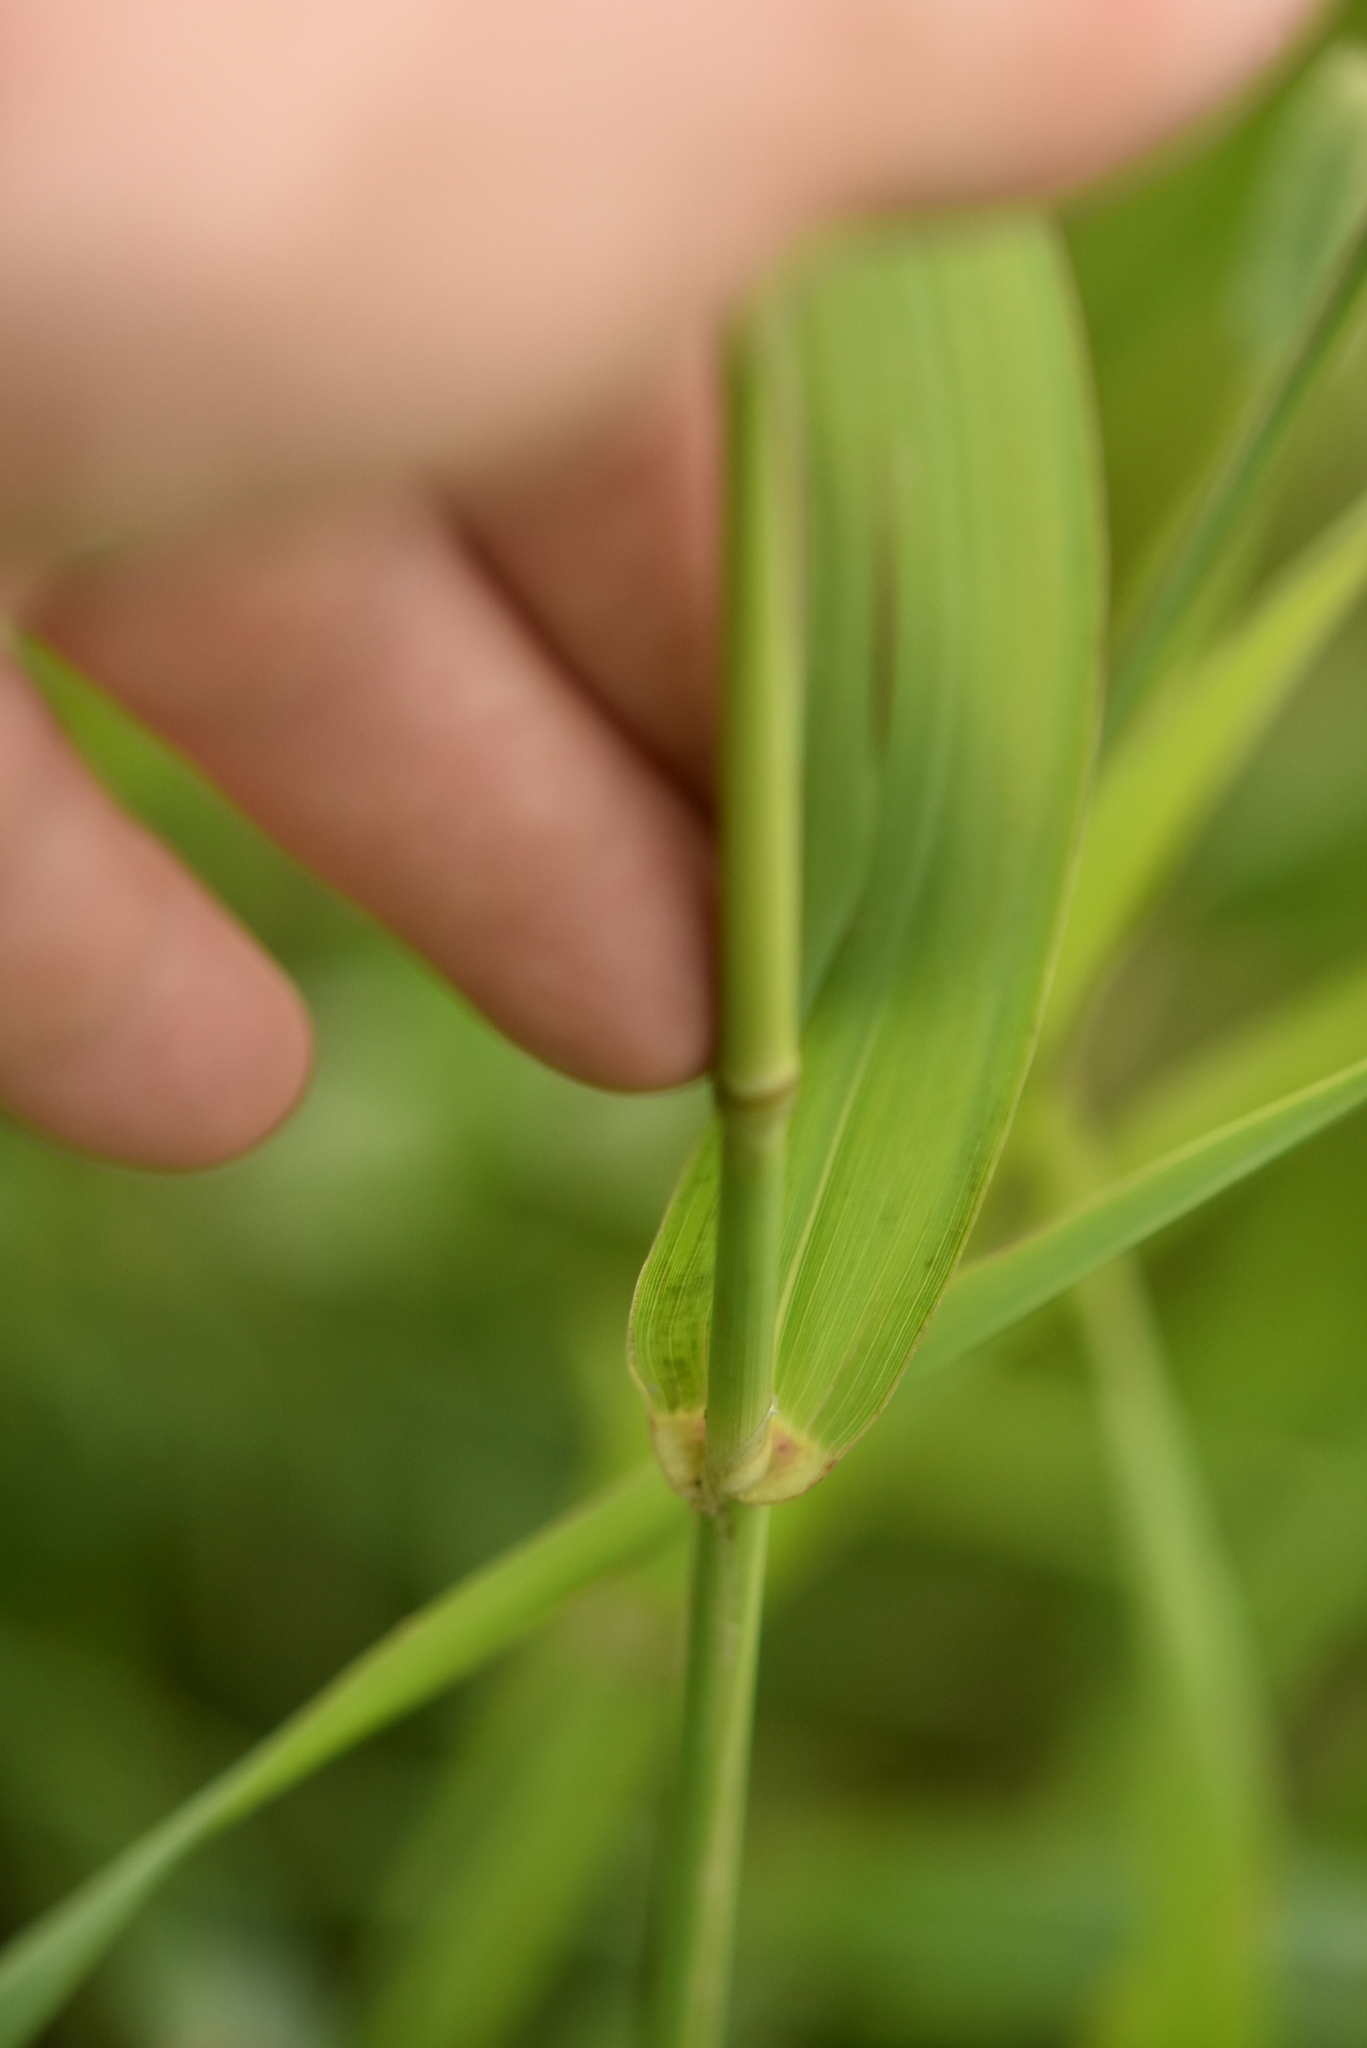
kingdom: Plantae
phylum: Tracheophyta
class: Liliopsida
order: Poales
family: Poaceae
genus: Phalaris
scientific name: Phalaris arundinacea
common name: Reed canary-grass
